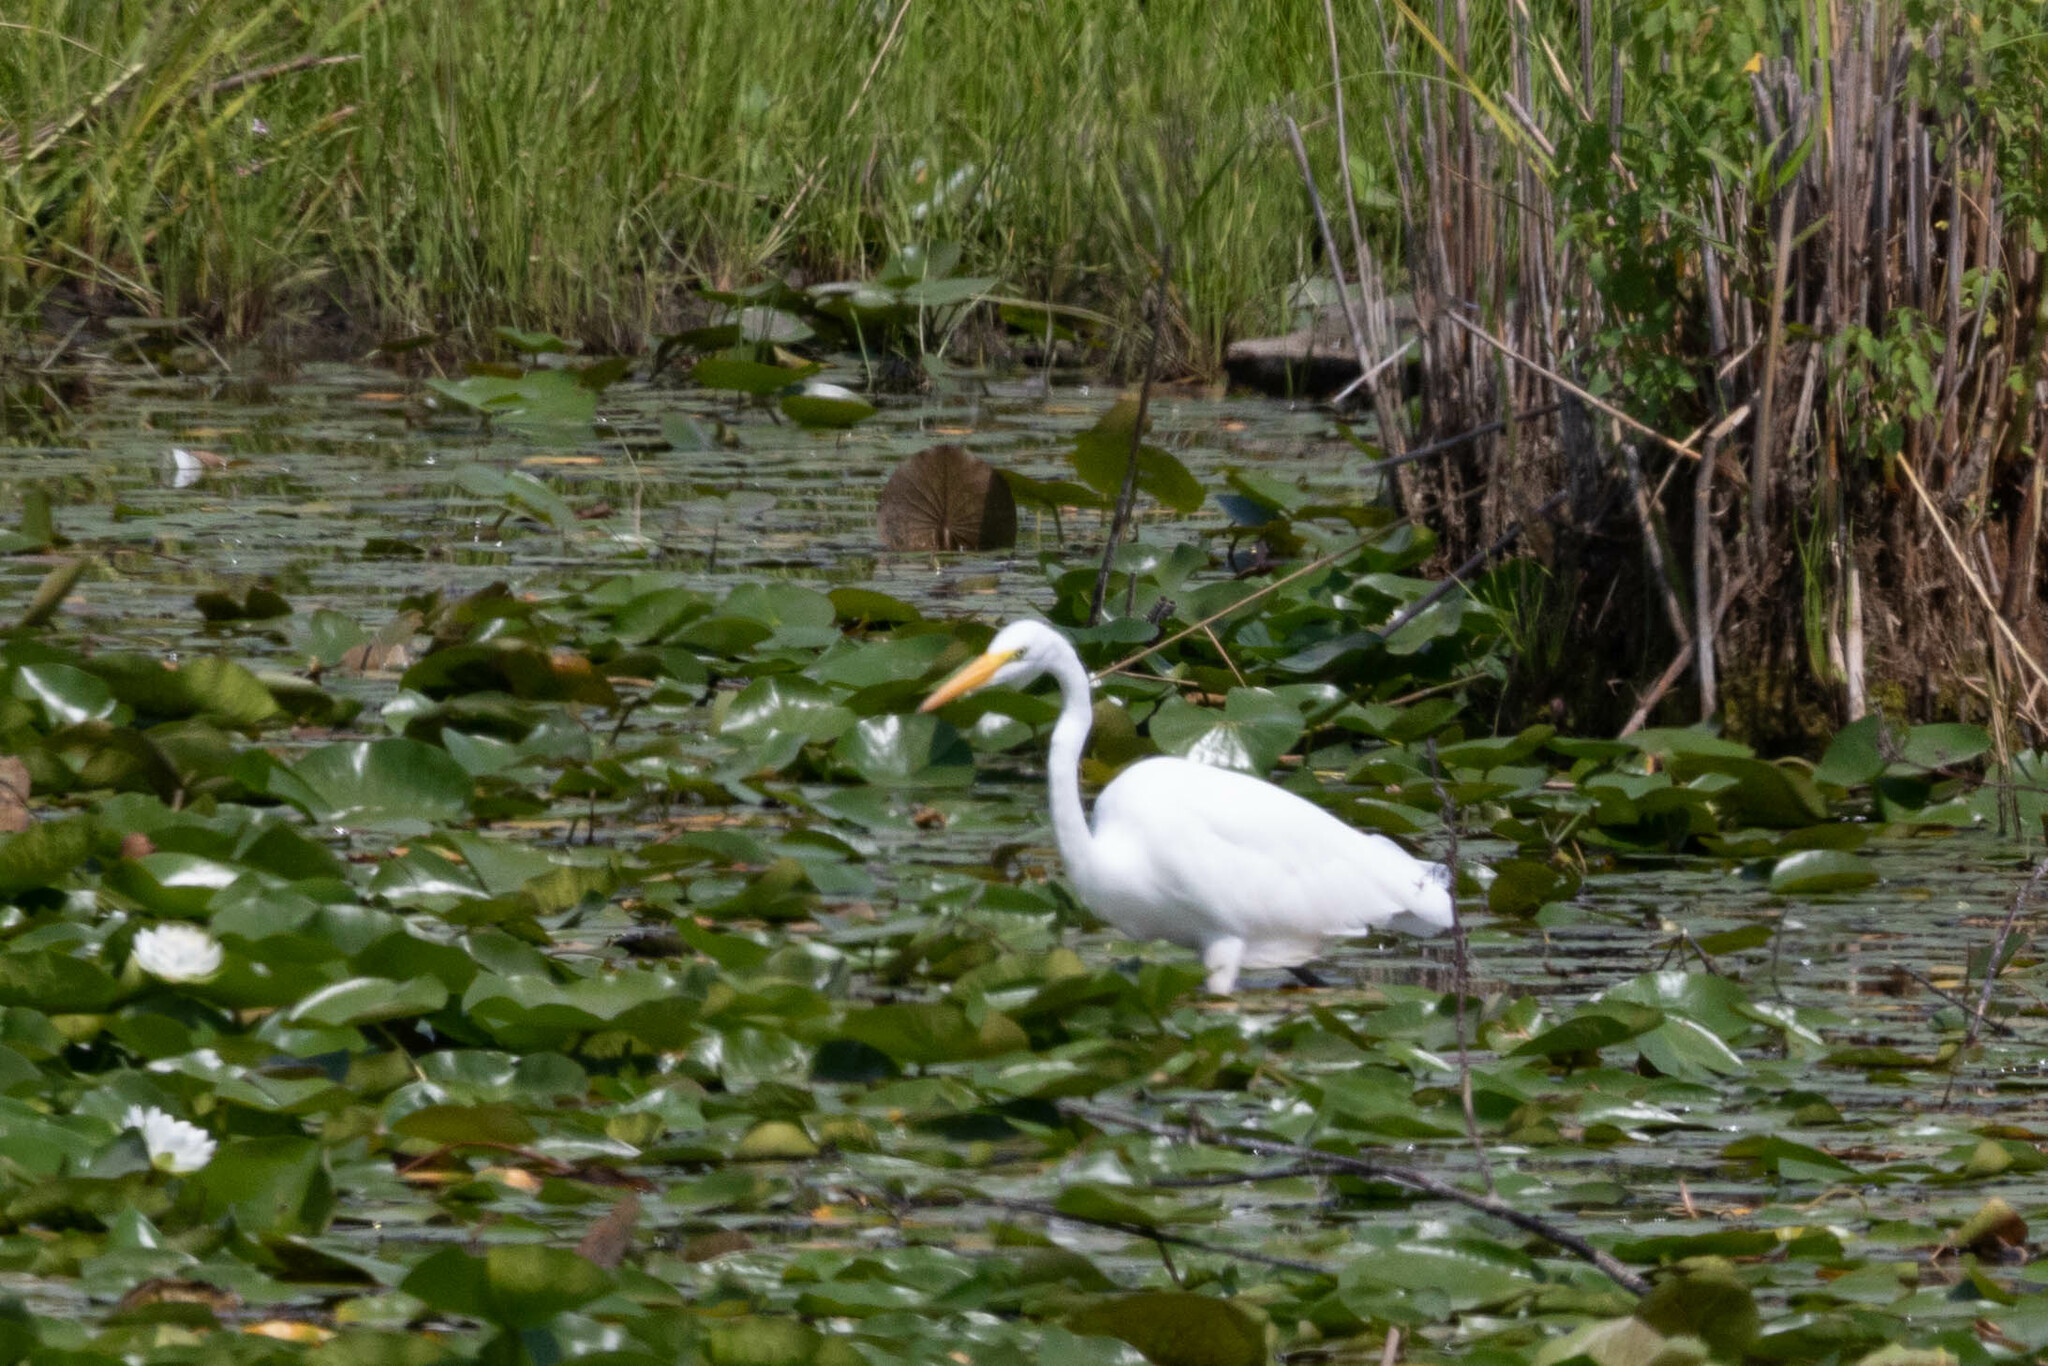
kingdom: Animalia
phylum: Chordata
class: Aves
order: Pelecaniformes
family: Ardeidae
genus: Ardea
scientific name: Ardea alba
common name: Great egret
